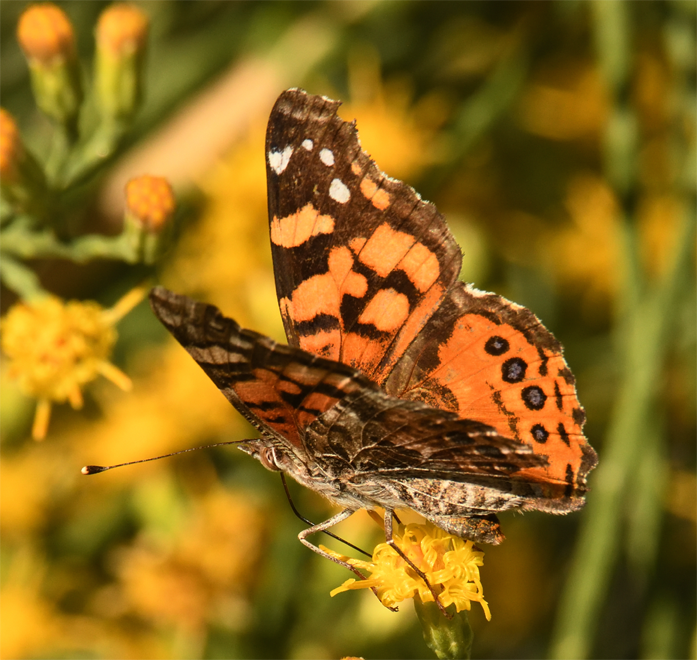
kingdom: Animalia
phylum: Arthropoda
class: Insecta
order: Lepidoptera
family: Nymphalidae
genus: Vanessa
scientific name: Vanessa annabella
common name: West coast lady
